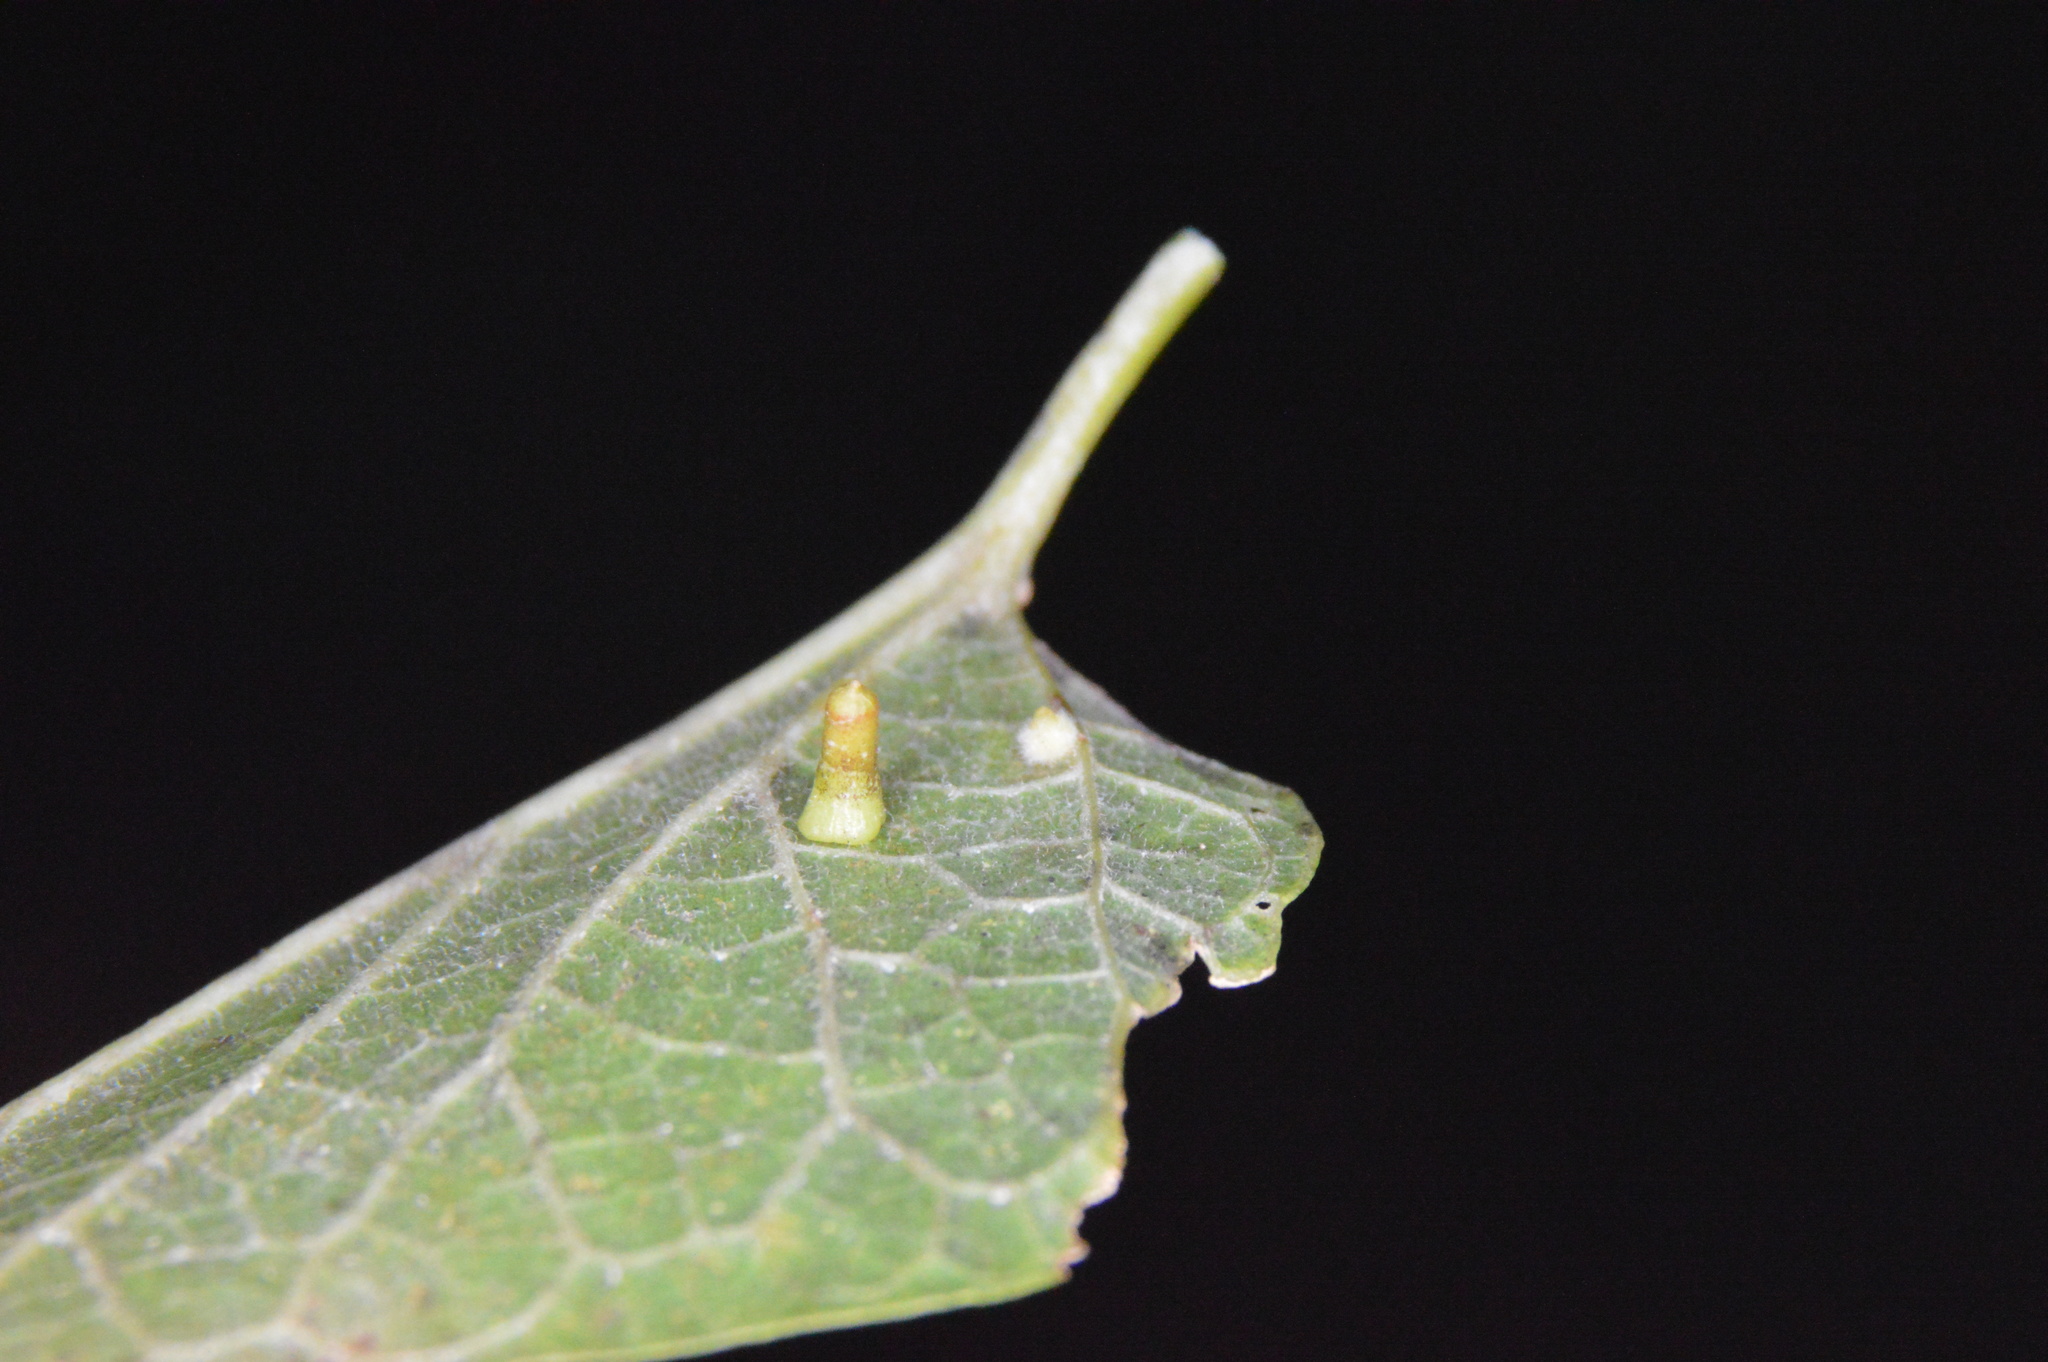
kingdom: Animalia
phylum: Arthropoda
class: Insecta
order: Diptera
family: Cecidomyiidae
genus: Celticecis
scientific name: Celticecis aciculata
